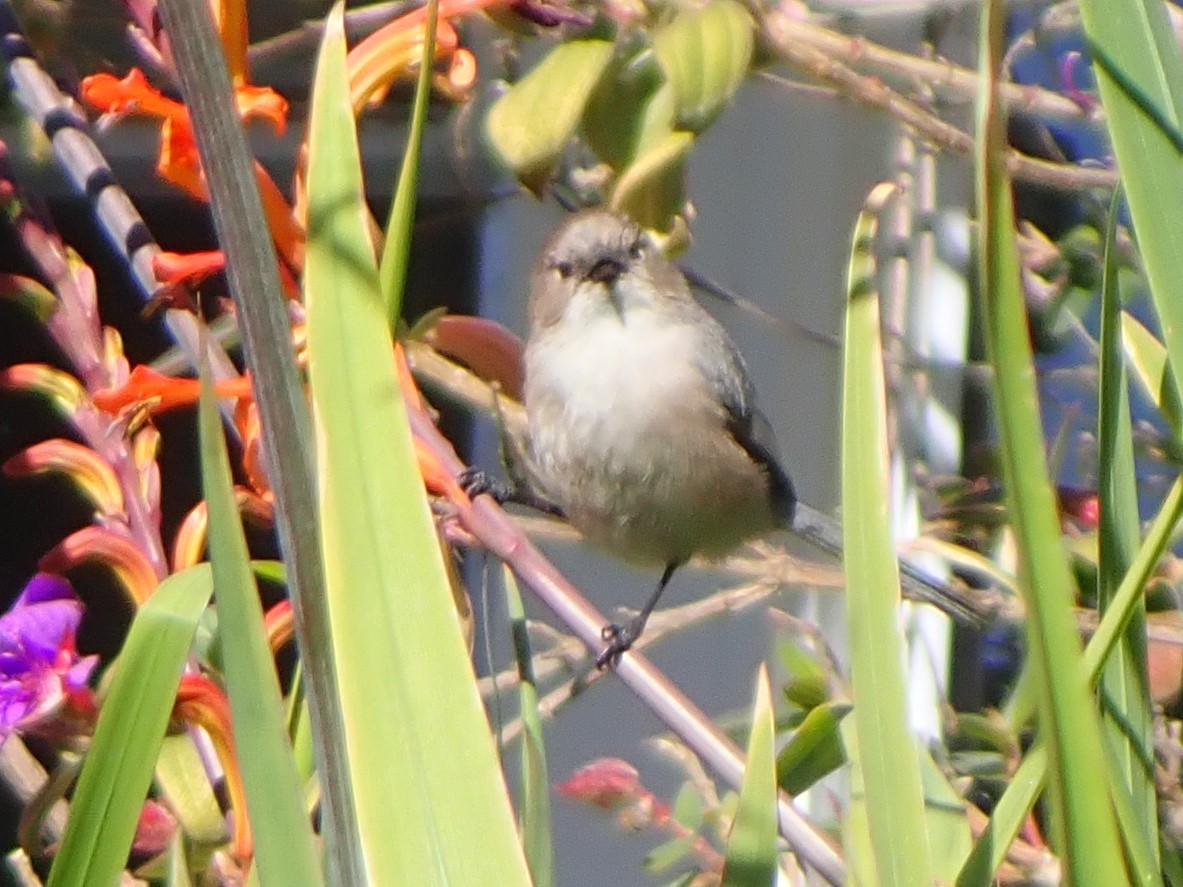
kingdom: Animalia
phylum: Chordata
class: Aves
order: Passeriformes
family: Aegithalidae
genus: Psaltriparus
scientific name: Psaltriparus minimus
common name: American bushtit
